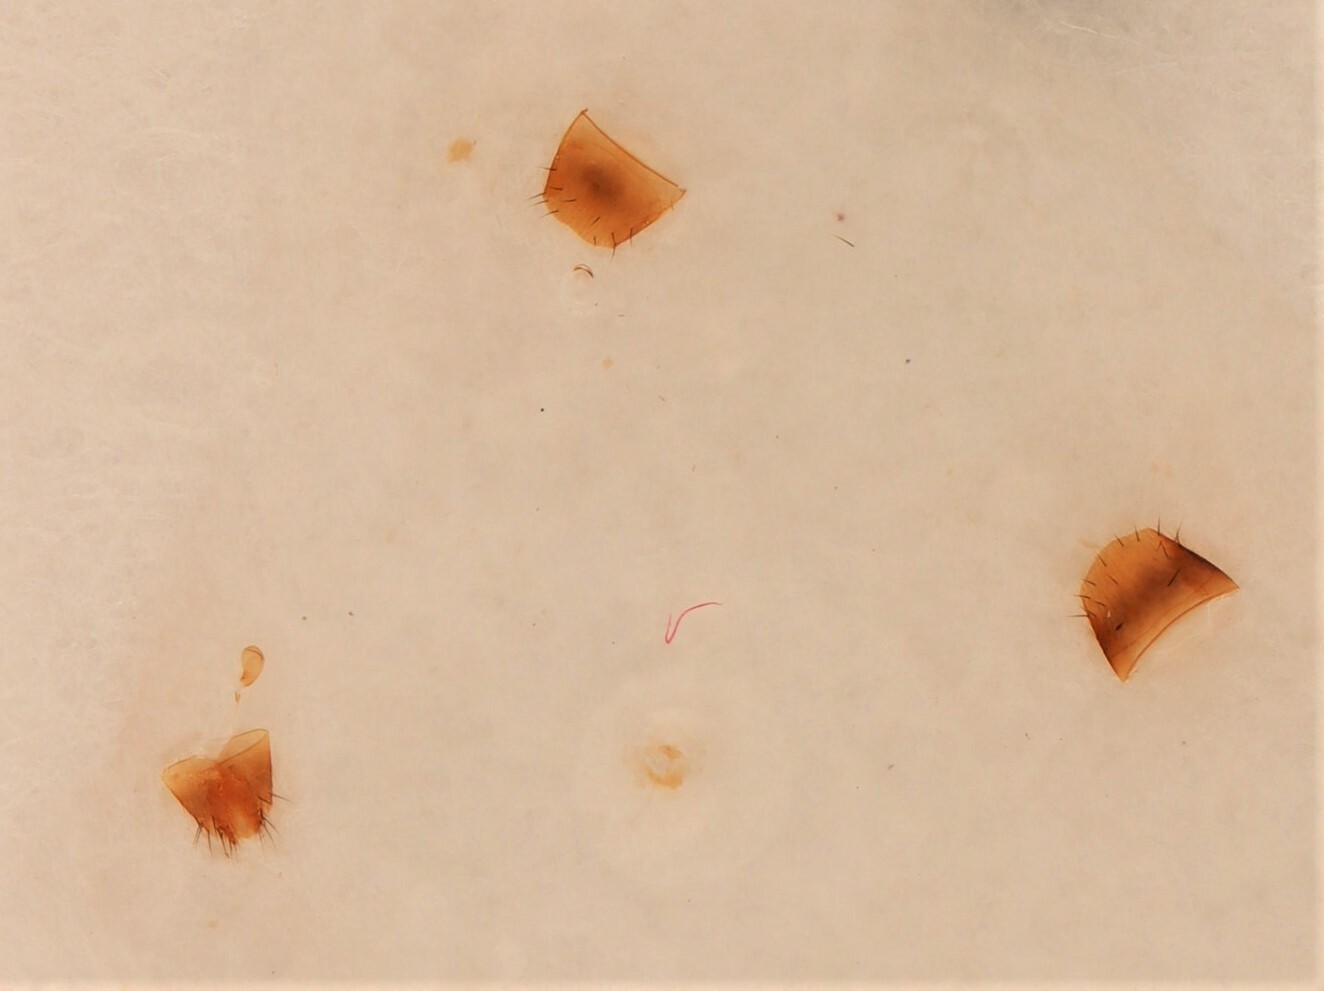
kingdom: Animalia
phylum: Arthropoda
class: Insecta
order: Coleoptera
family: Staphylinidae
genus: Silusida
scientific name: Silusida marginella
